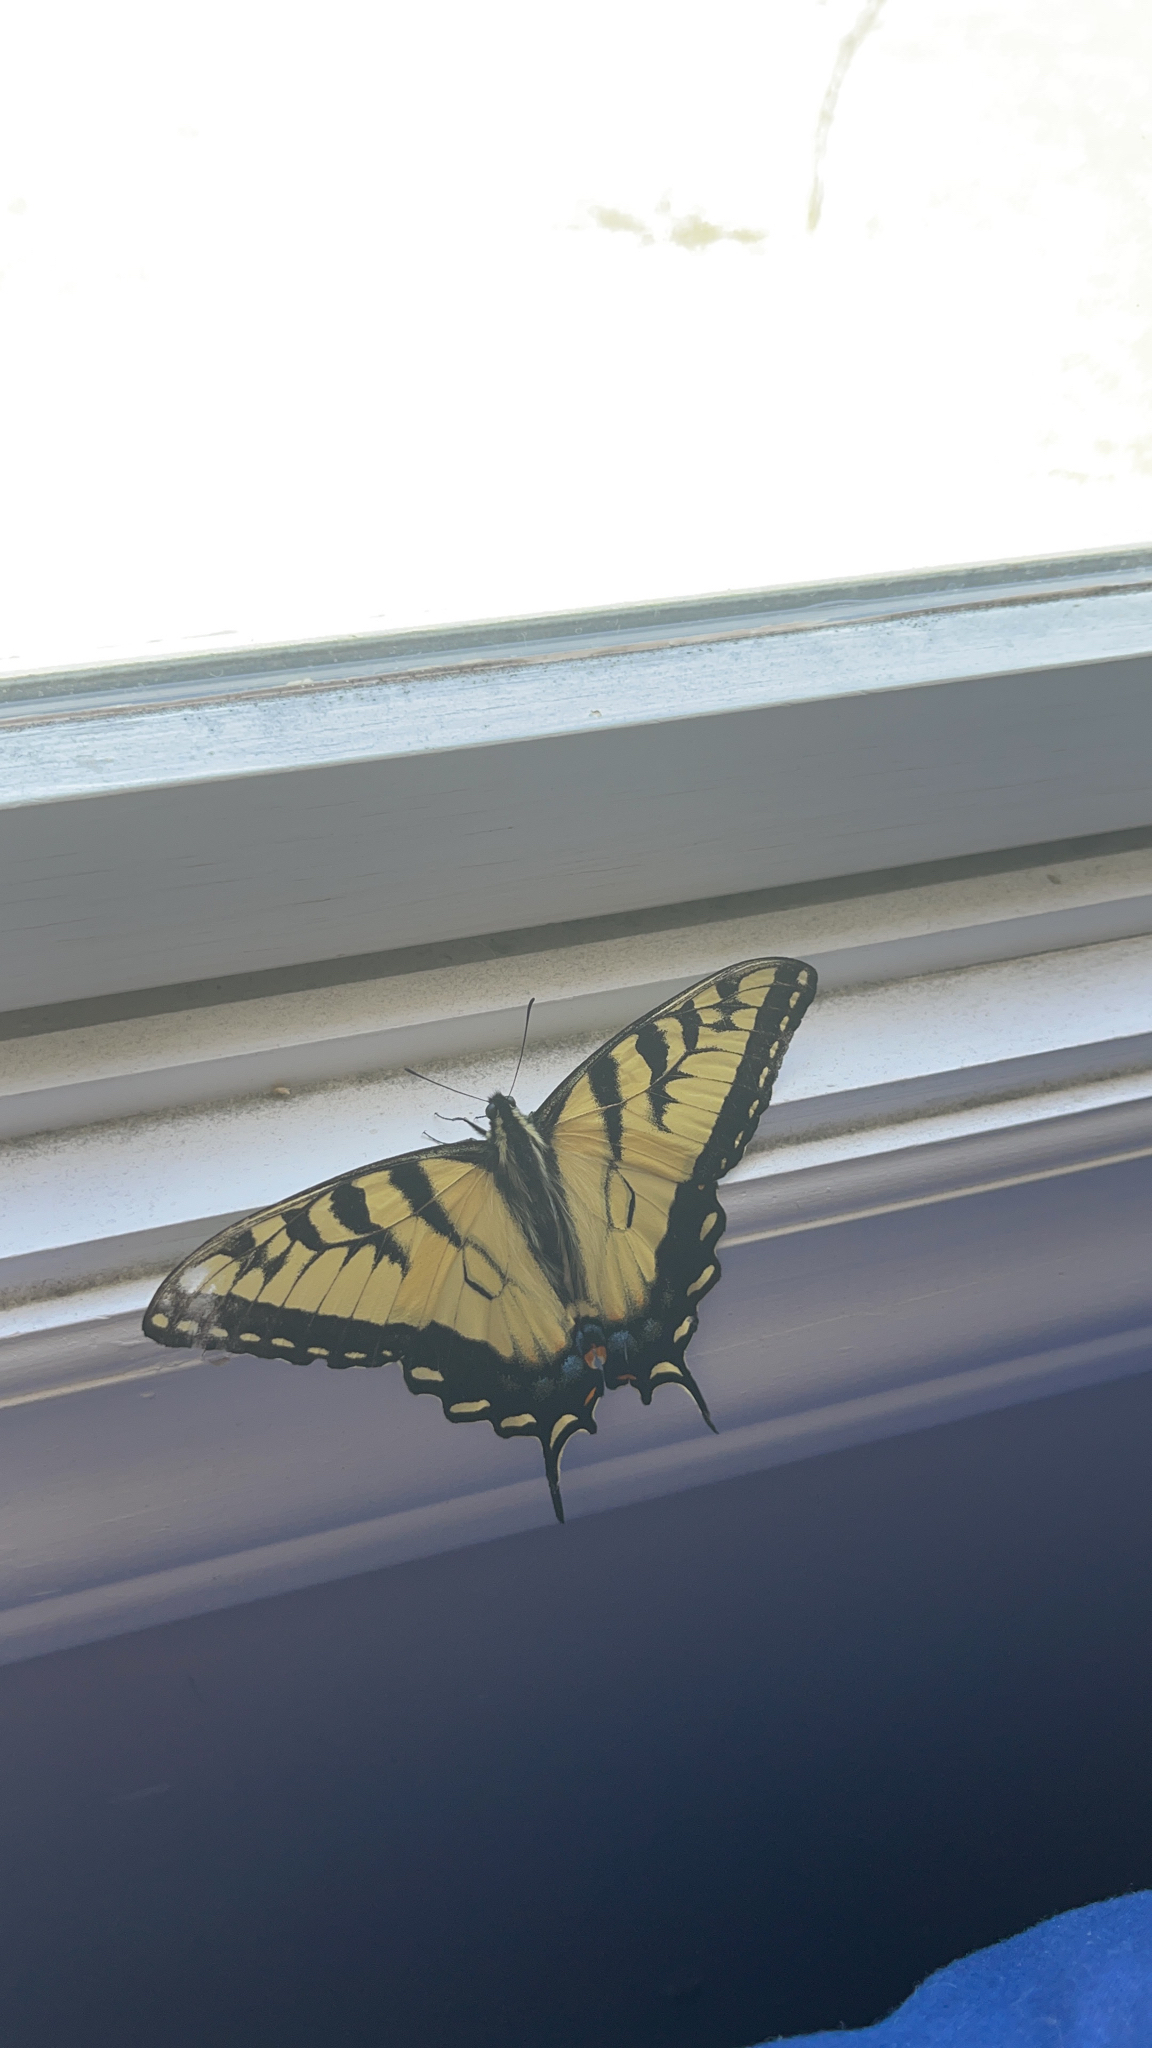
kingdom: Animalia
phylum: Arthropoda
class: Insecta
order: Lepidoptera
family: Papilionidae
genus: Papilio
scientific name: Papilio glaucus
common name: Tiger swallowtail
